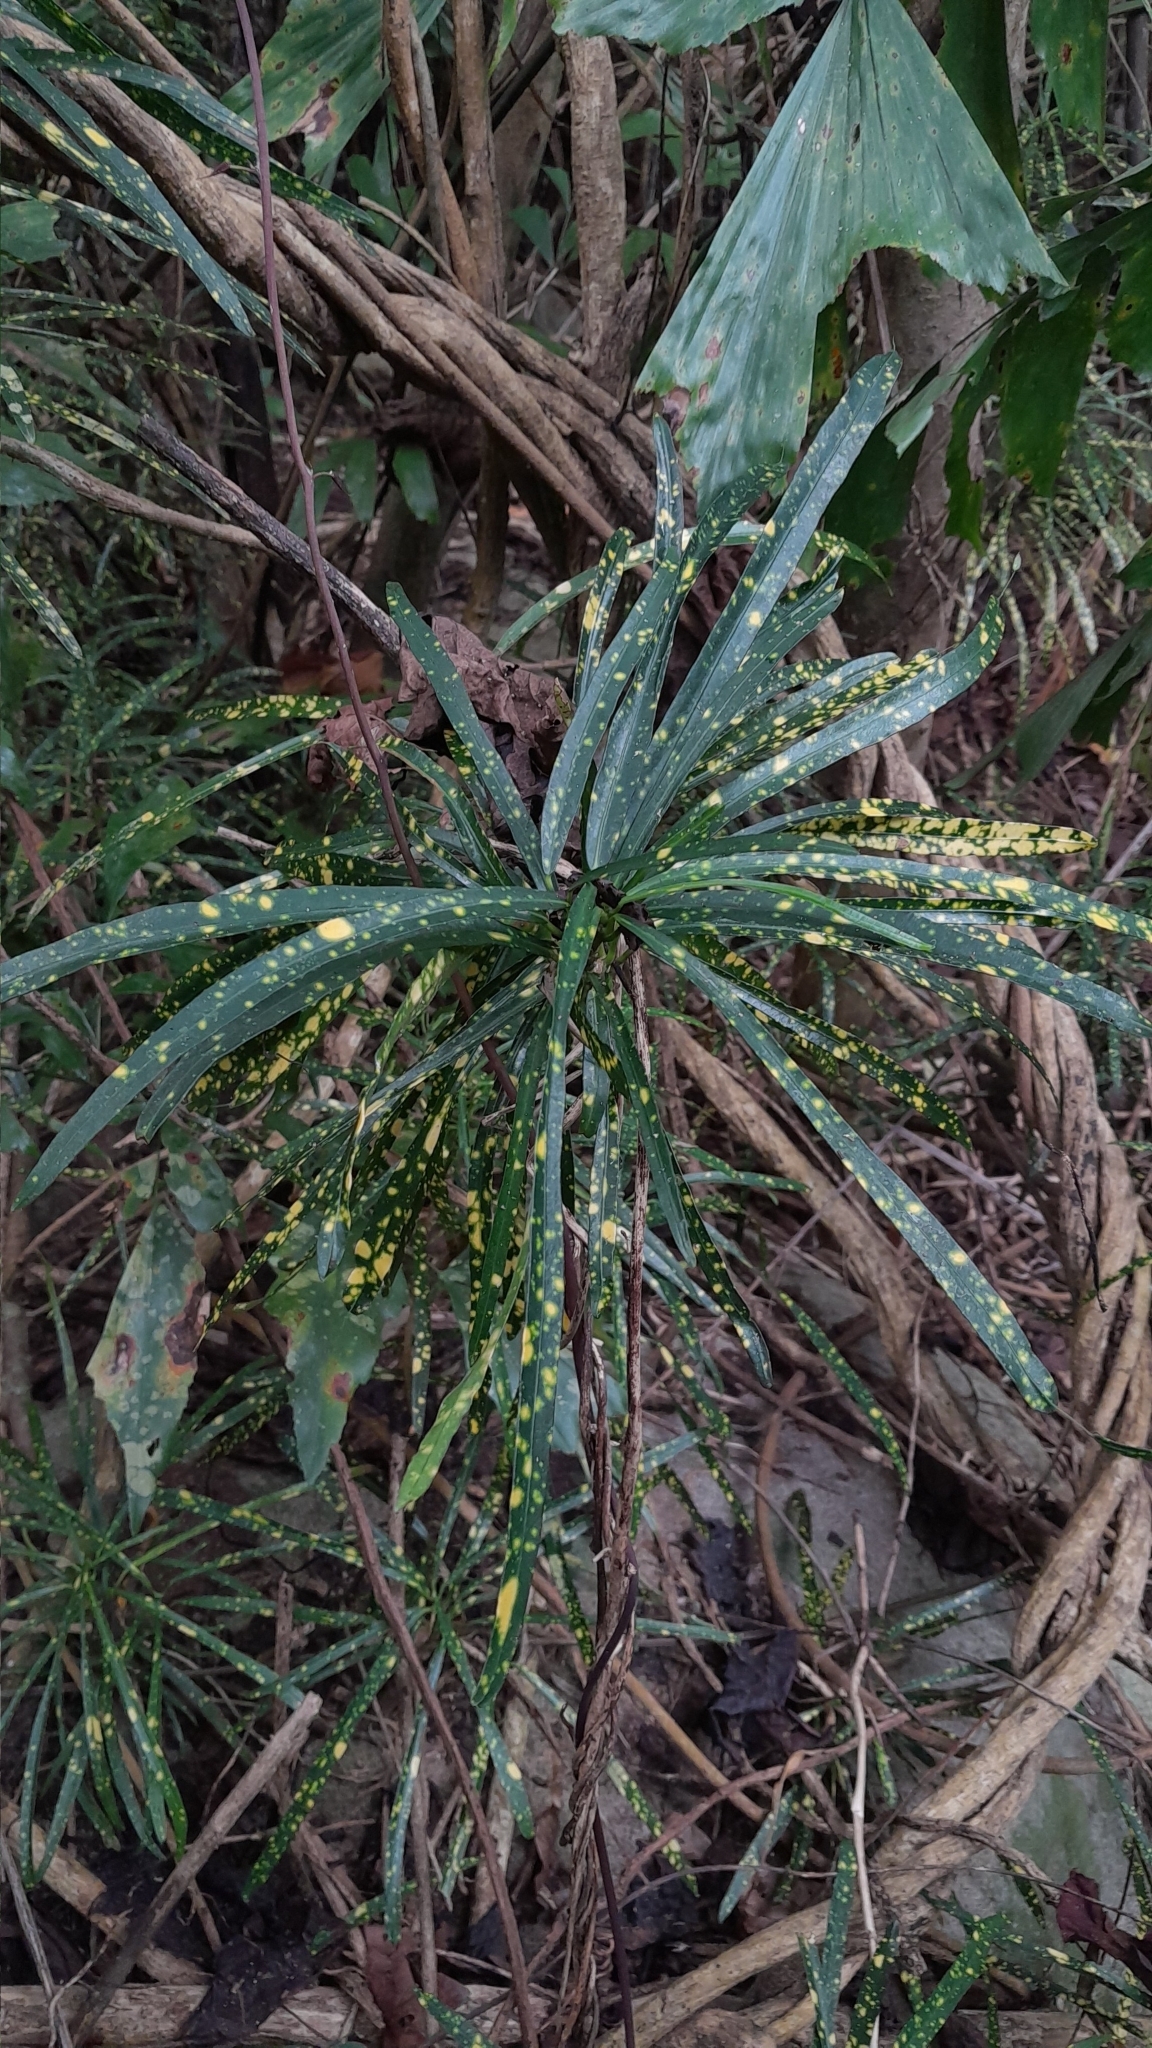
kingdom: Plantae
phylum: Tracheophyta
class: Magnoliopsida
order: Malpighiales
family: Euphorbiaceae
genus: Codiaeum
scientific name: Codiaeum variegatum
